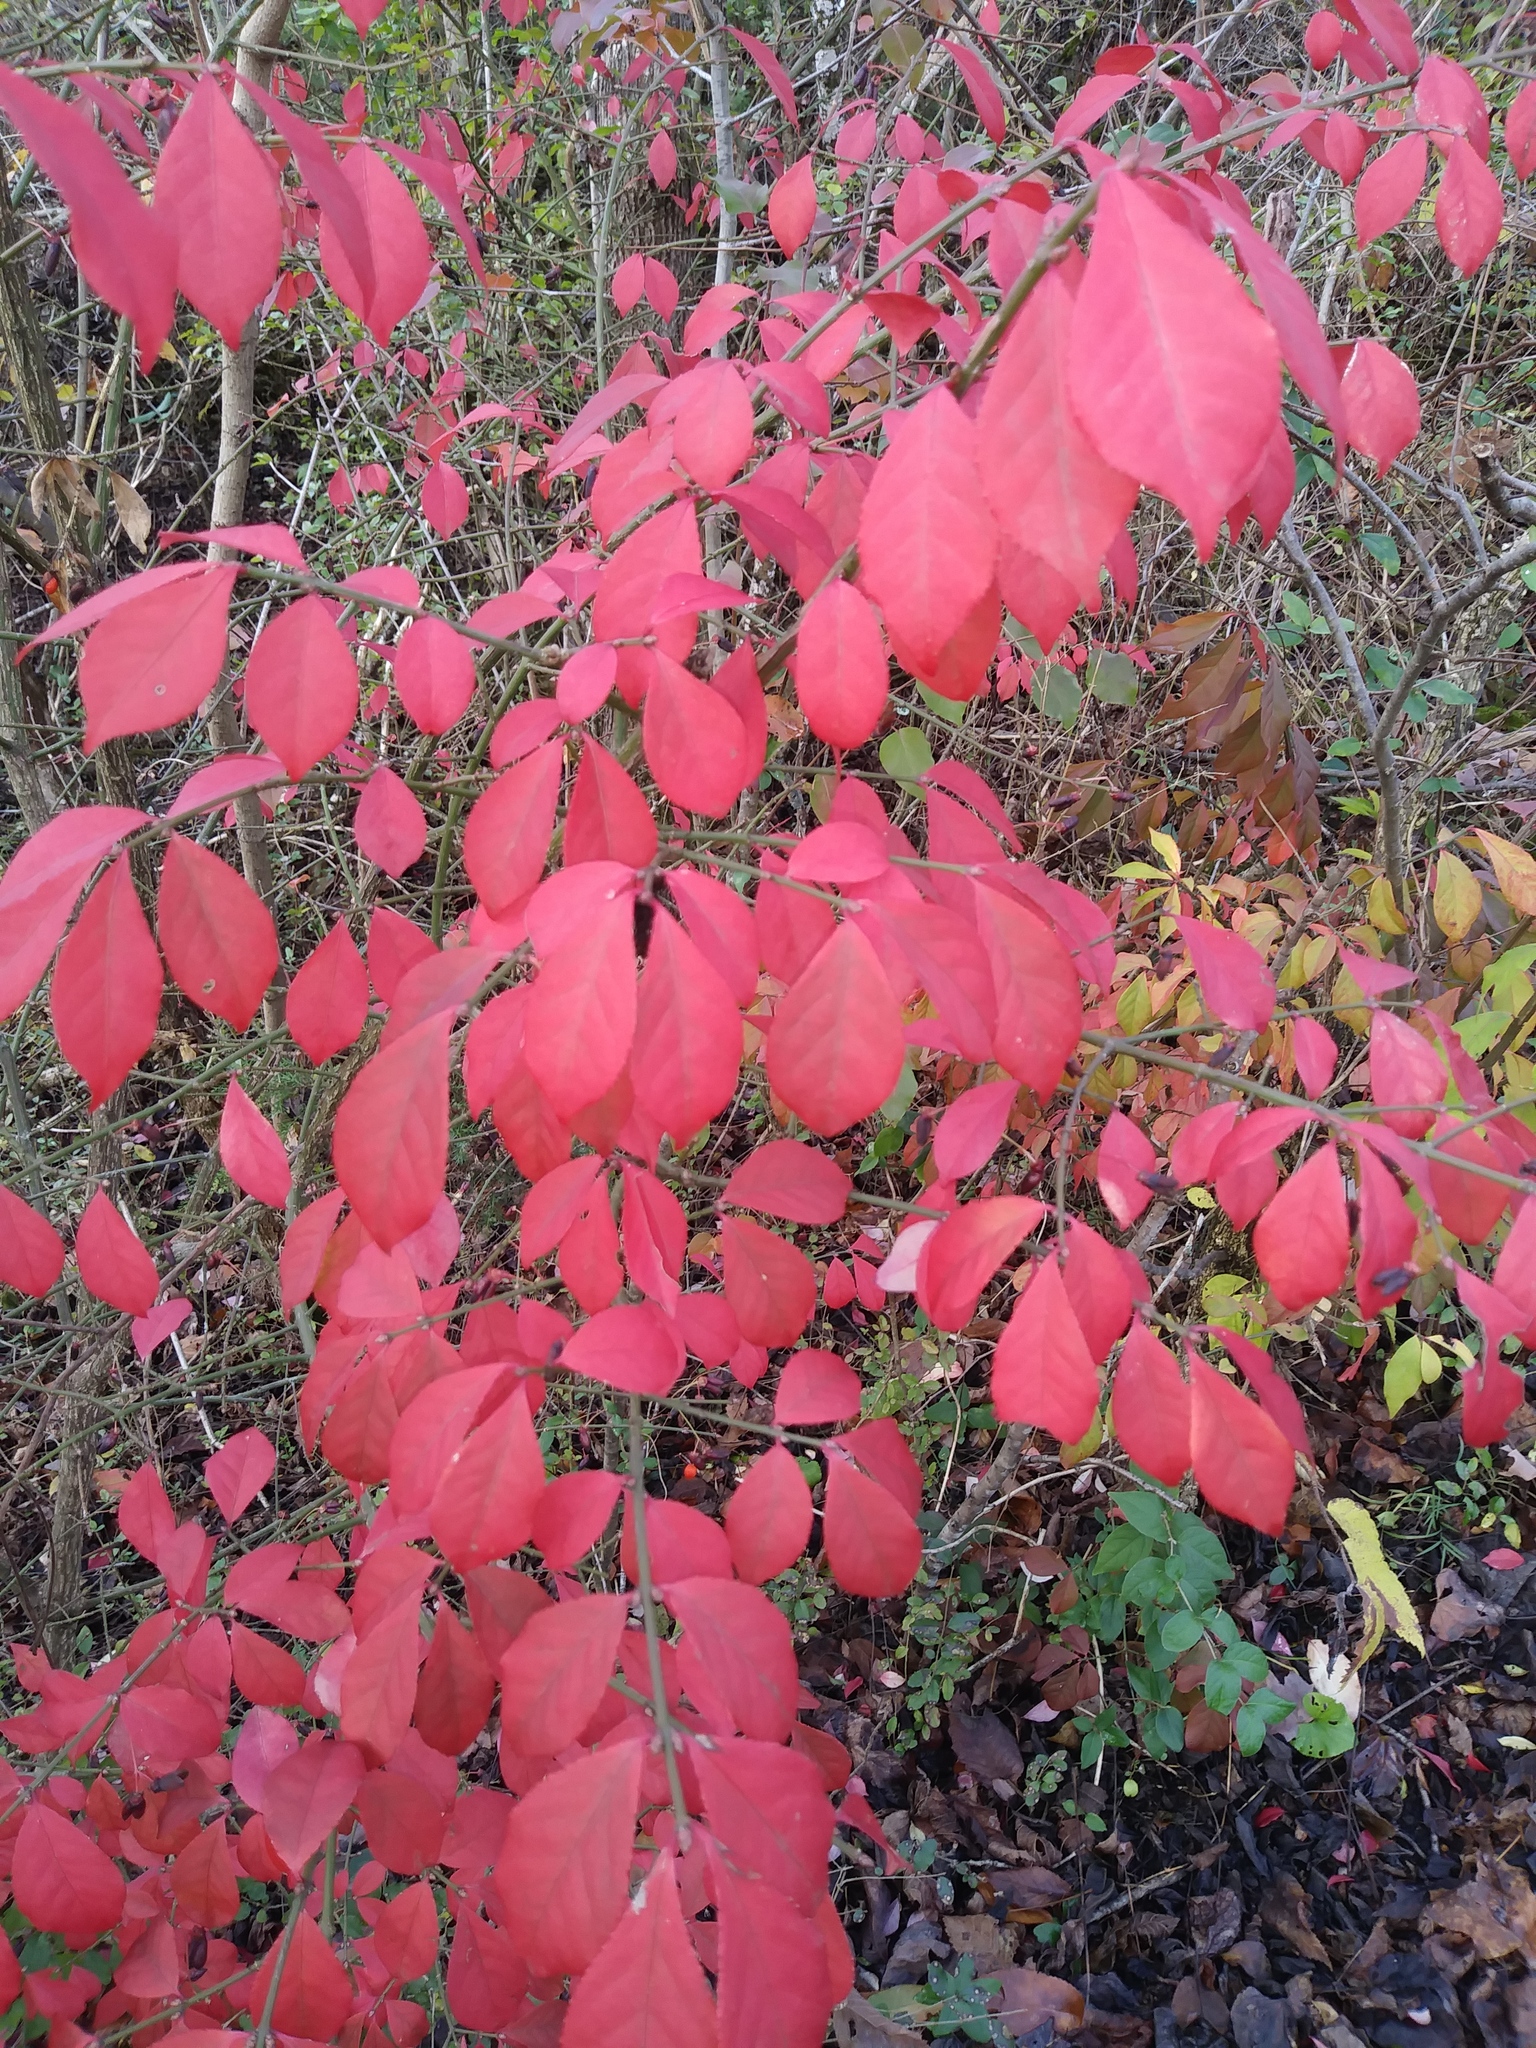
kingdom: Plantae
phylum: Tracheophyta
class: Magnoliopsida
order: Celastrales
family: Celastraceae
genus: Euonymus
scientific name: Euonymus alatus
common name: Winged euonymus
